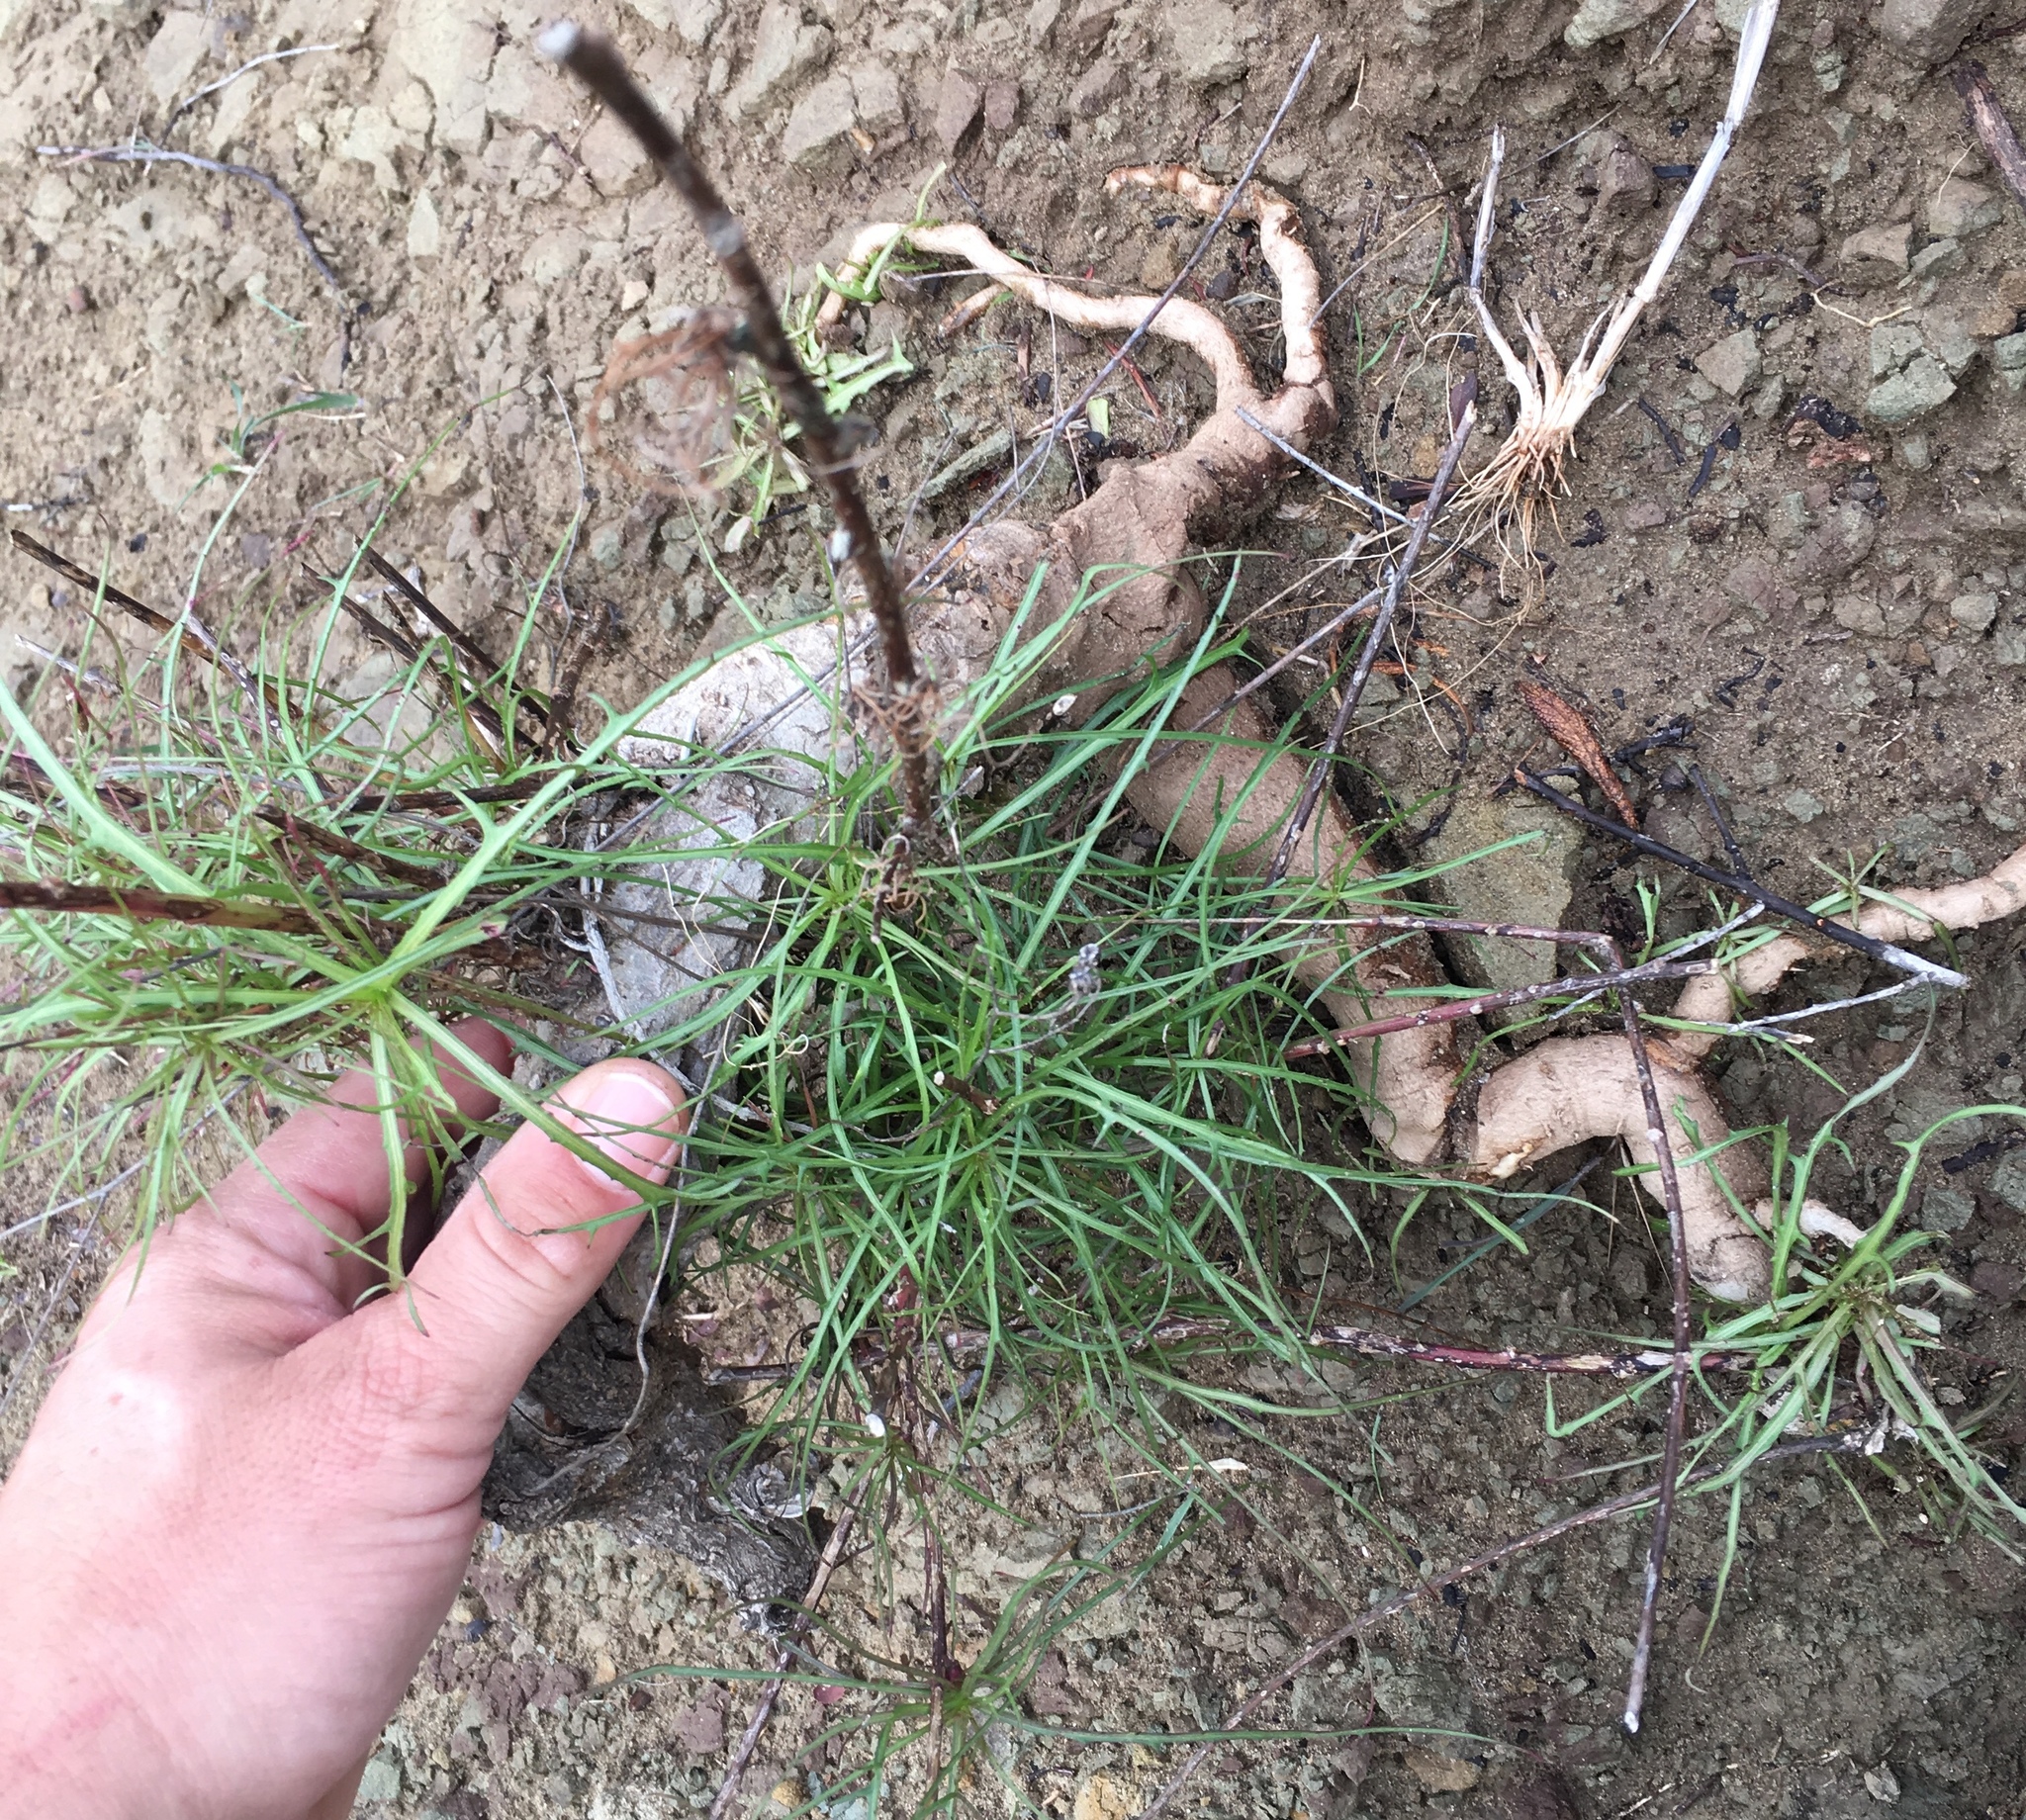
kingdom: Plantae
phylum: Tracheophyta
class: Magnoliopsida
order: Asterales
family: Asteraceae
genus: Malacothrix
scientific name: Malacothrix saxatilis
